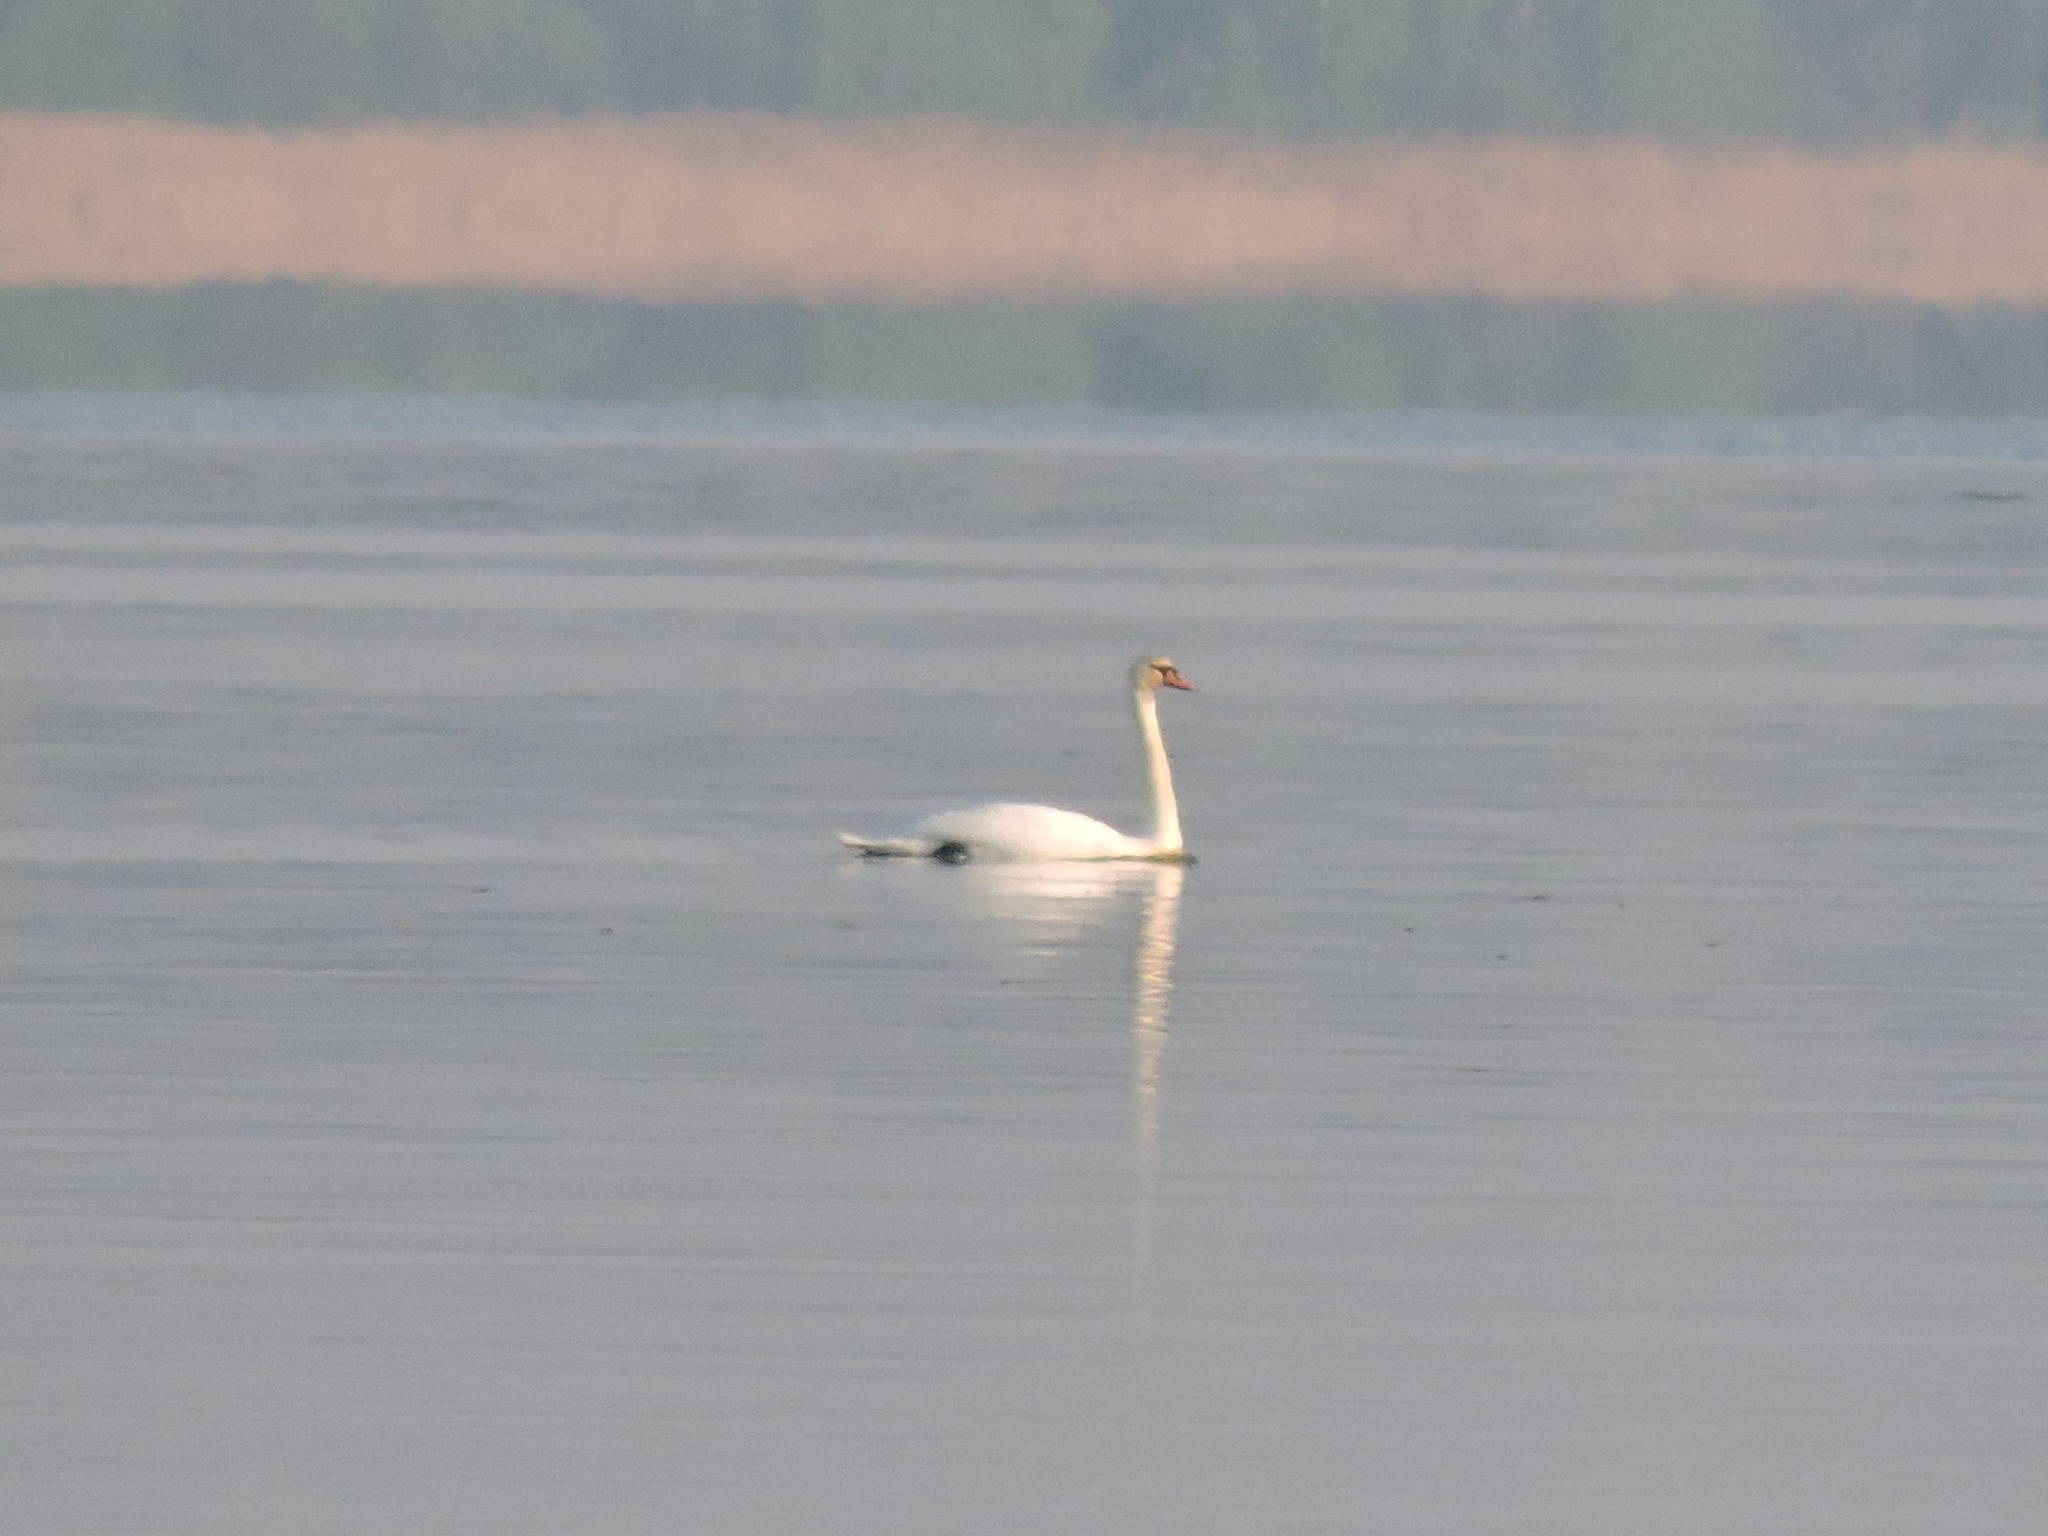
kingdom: Animalia
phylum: Chordata
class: Aves
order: Anseriformes
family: Anatidae
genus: Cygnus
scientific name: Cygnus olor
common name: Mute swan
